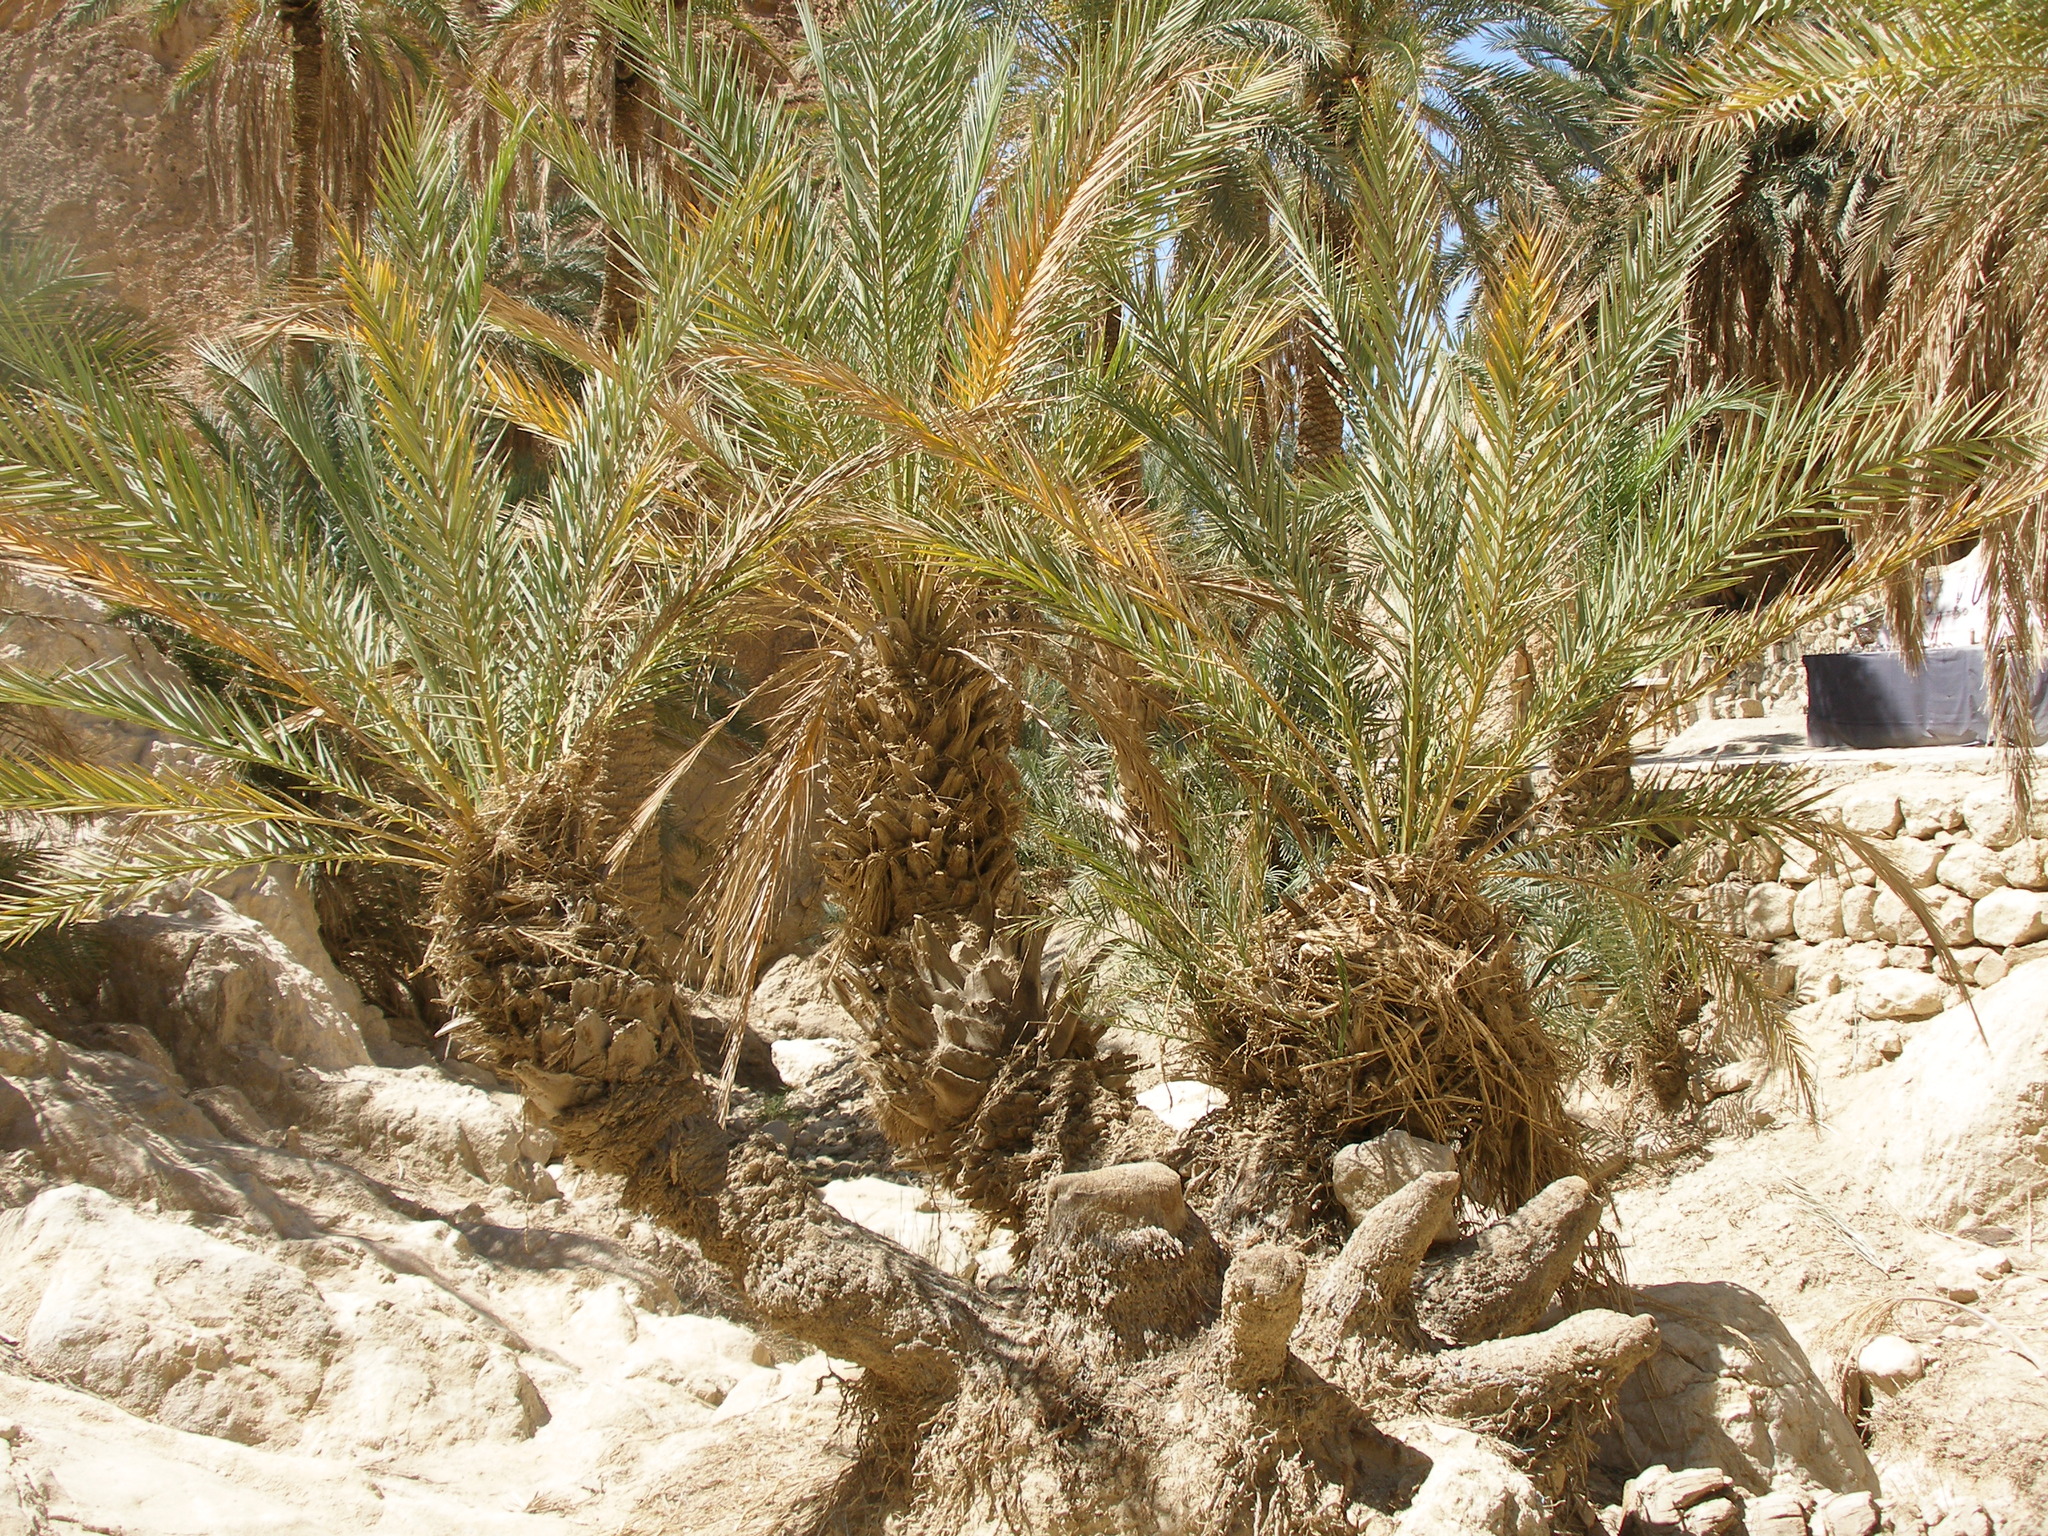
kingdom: Plantae
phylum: Tracheophyta
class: Liliopsida
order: Arecales
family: Arecaceae
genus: Phoenix
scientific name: Phoenix dactylifera
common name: Date palm
